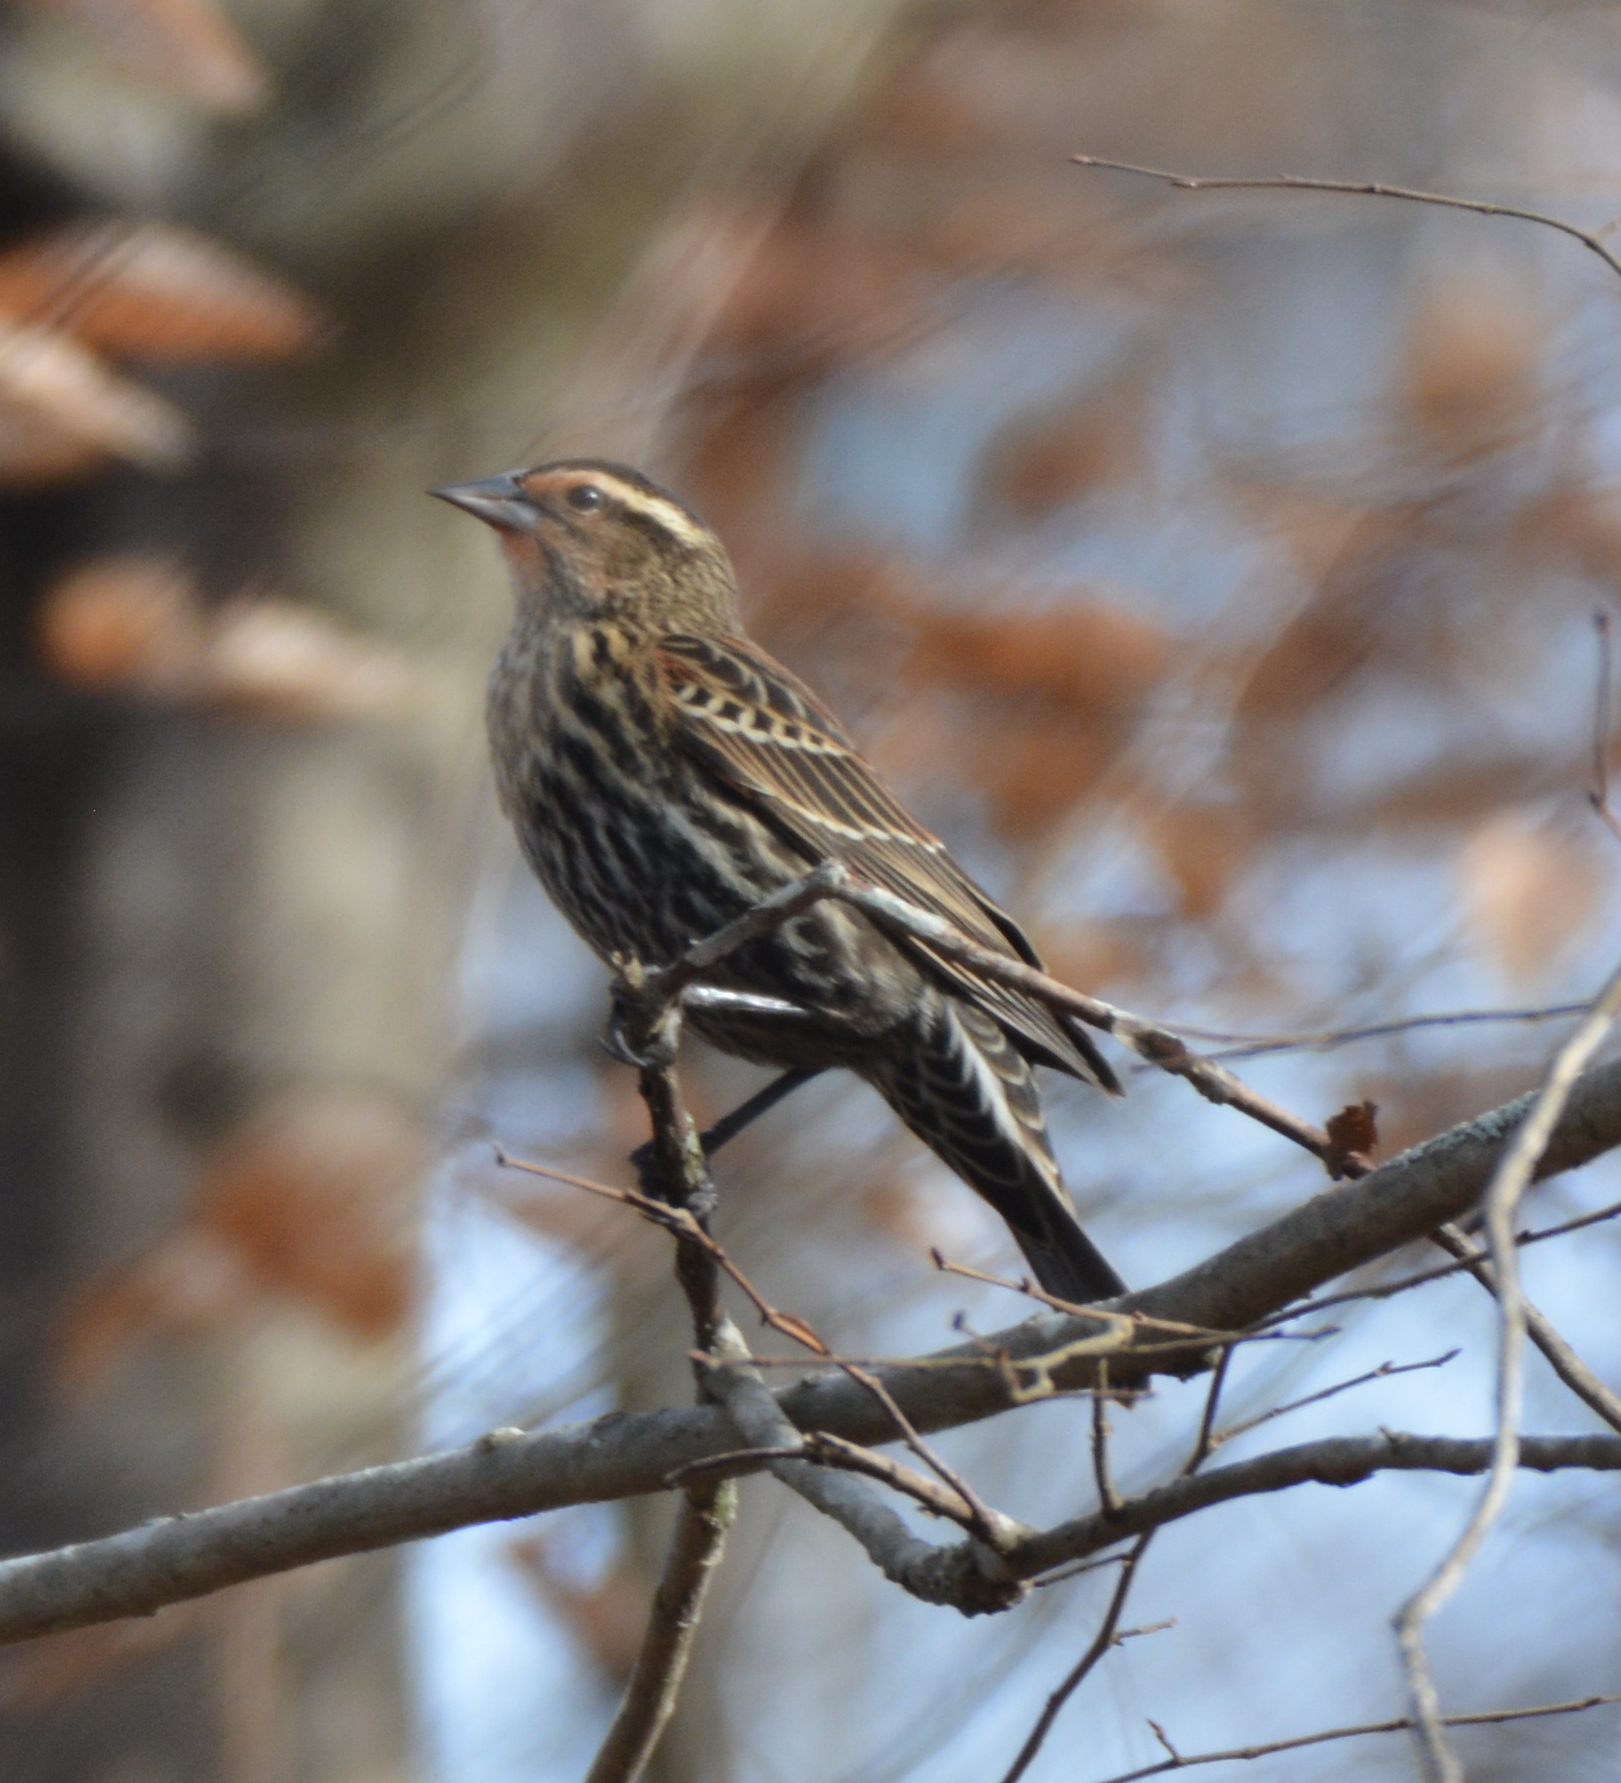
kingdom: Animalia
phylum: Chordata
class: Aves
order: Passeriformes
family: Icteridae
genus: Agelaius
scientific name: Agelaius phoeniceus
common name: Red-winged blackbird
